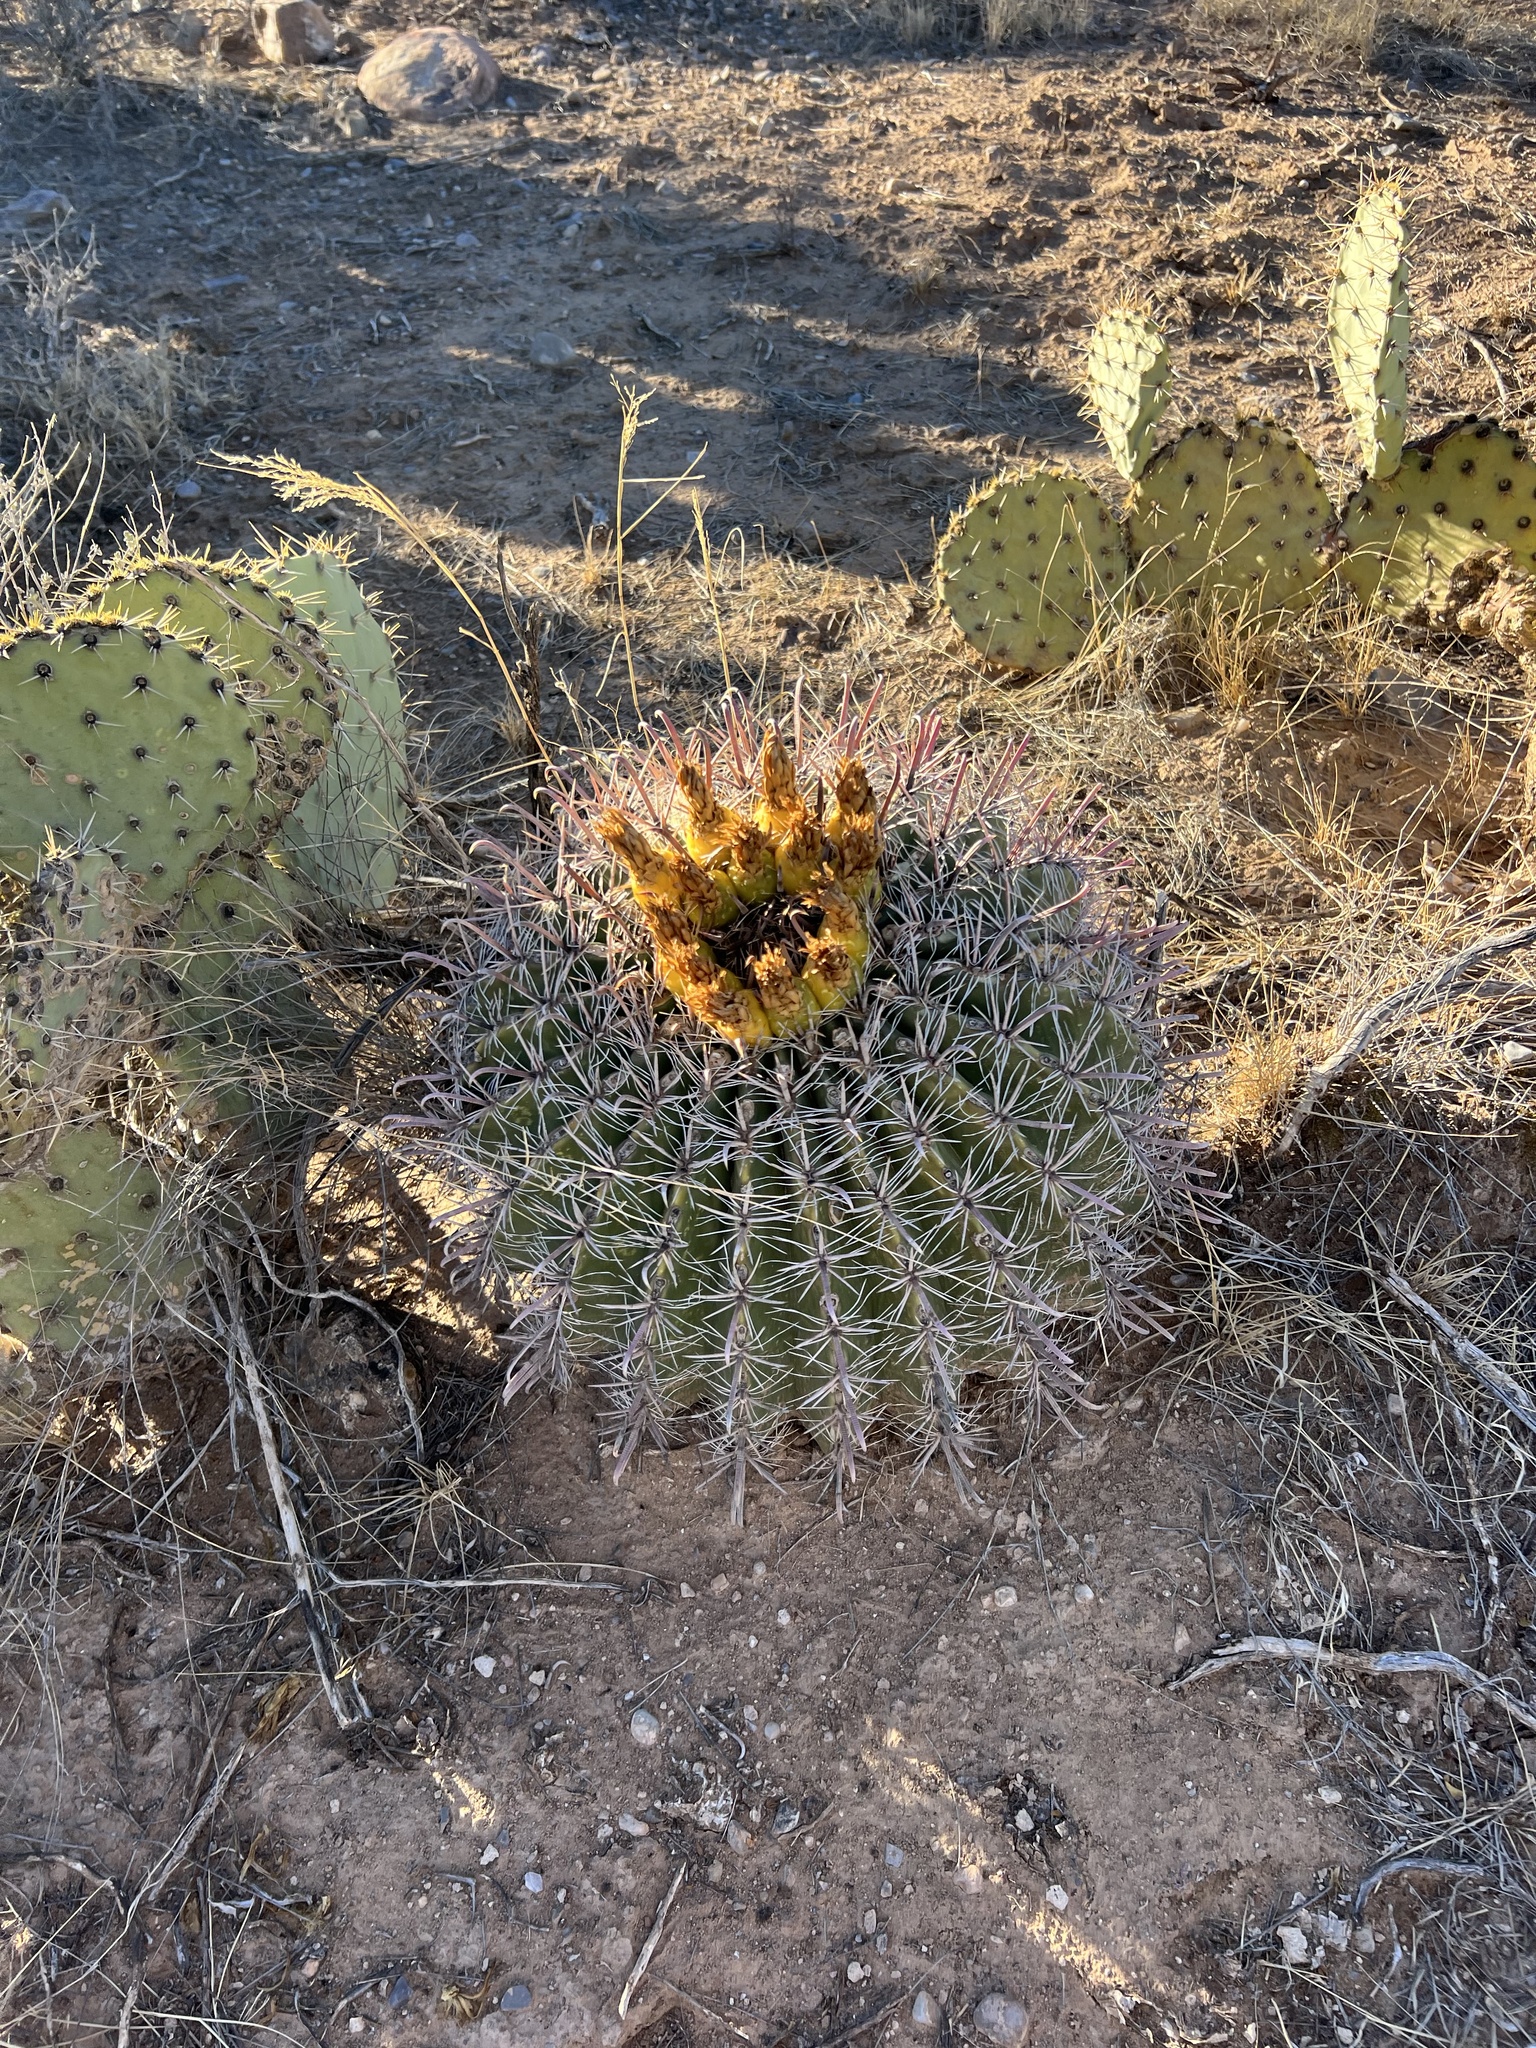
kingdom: Plantae
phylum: Tracheophyta
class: Magnoliopsida
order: Caryophyllales
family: Cactaceae
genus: Ferocactus
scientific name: Ferocactus wislizeni
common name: Candy barrel cactus
